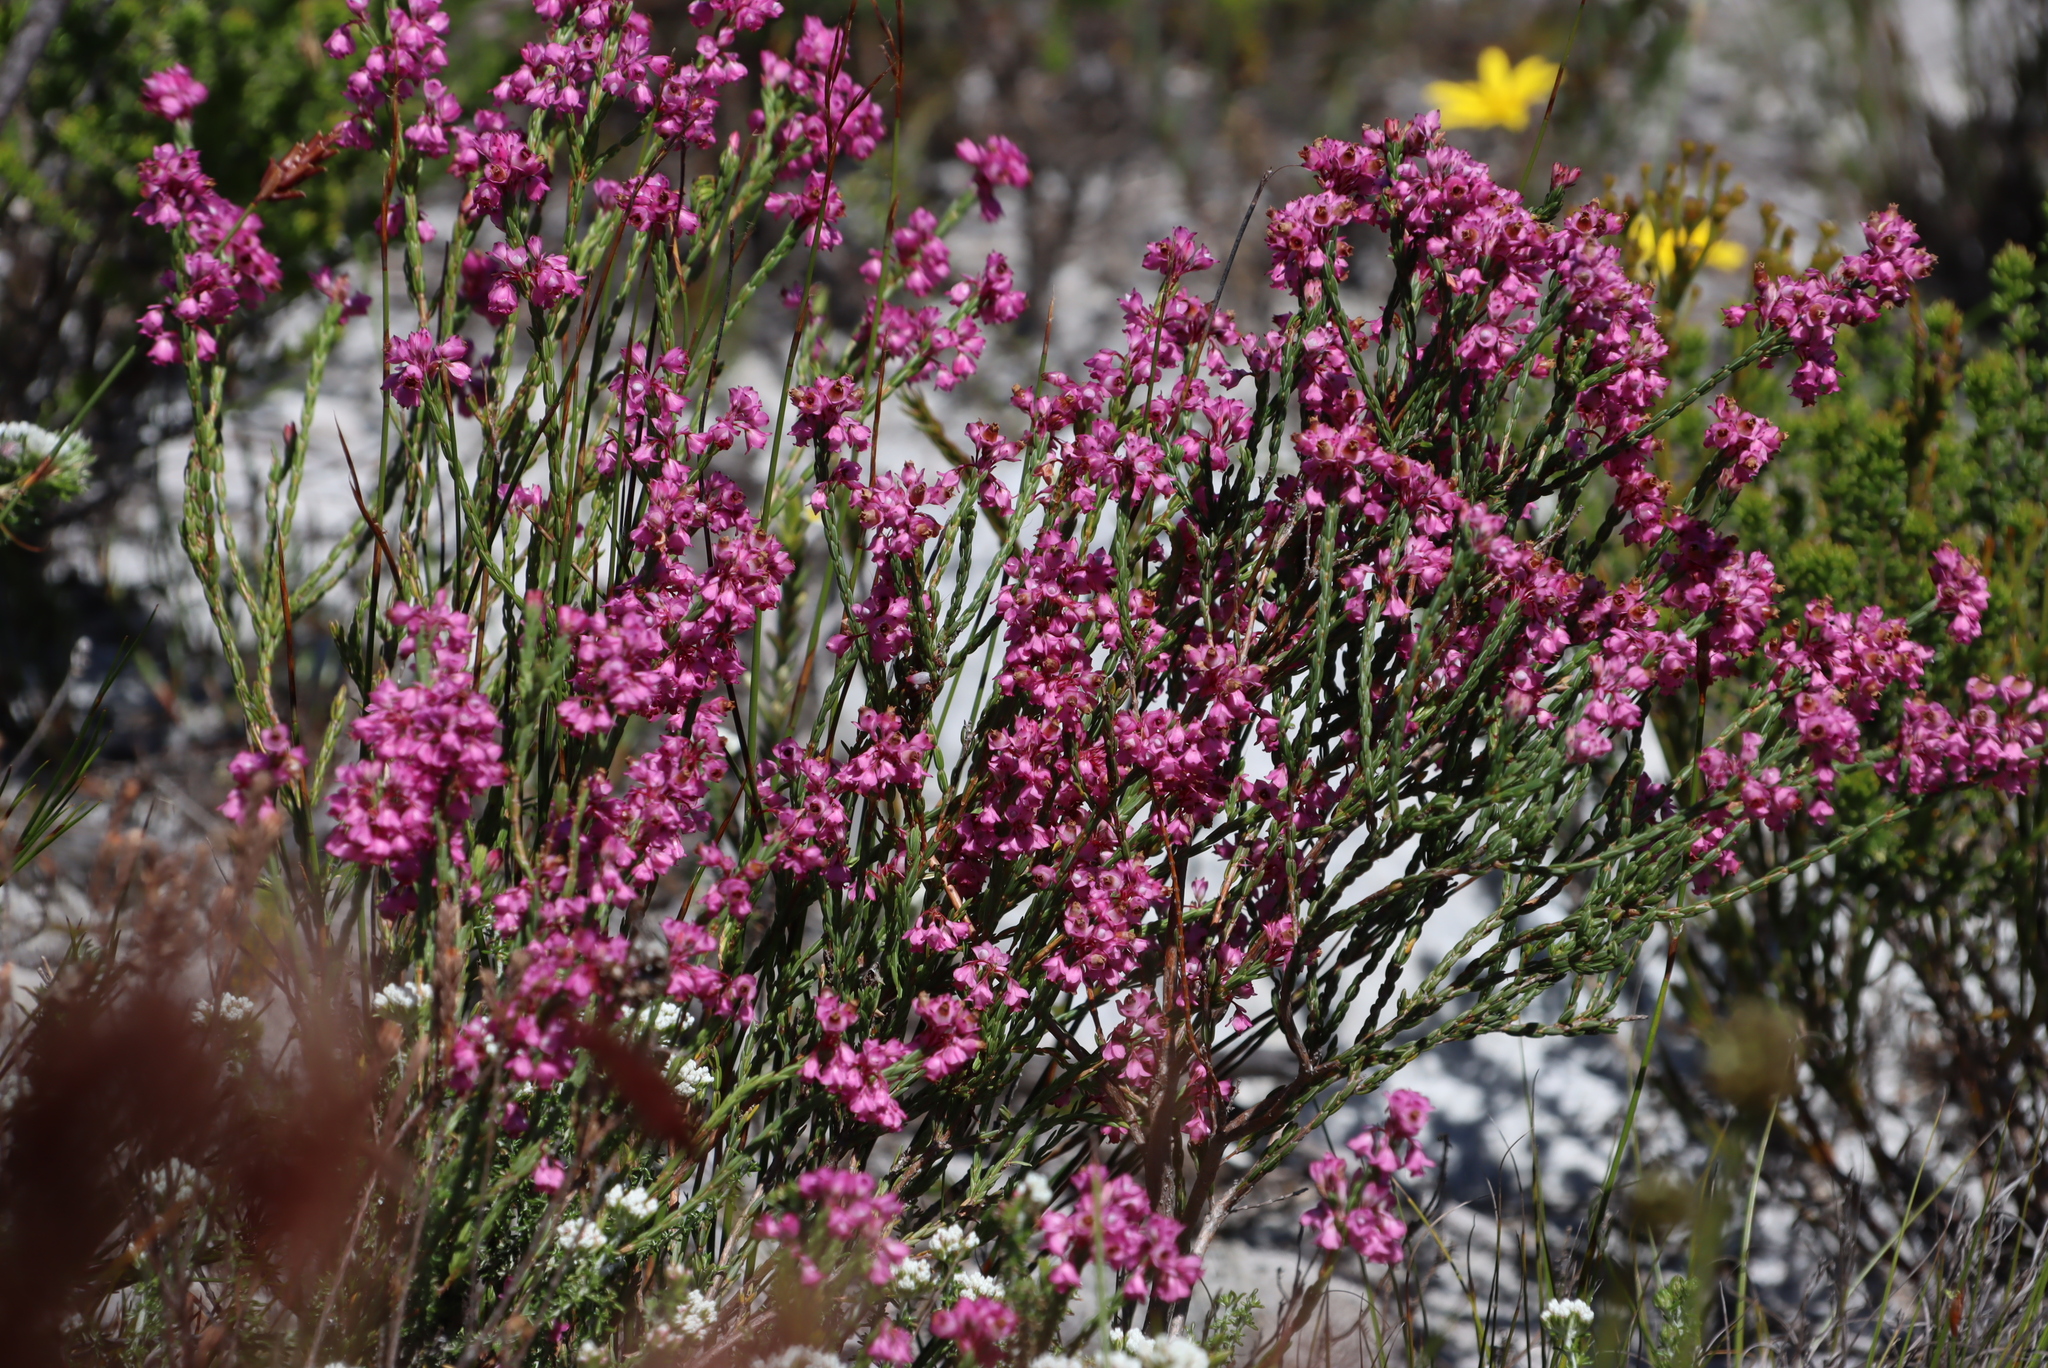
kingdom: Plantae
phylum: Tracheophyta
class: Magnoliopsida
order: Ericales
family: Ericaceae
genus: Erica
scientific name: Erica corifolia
